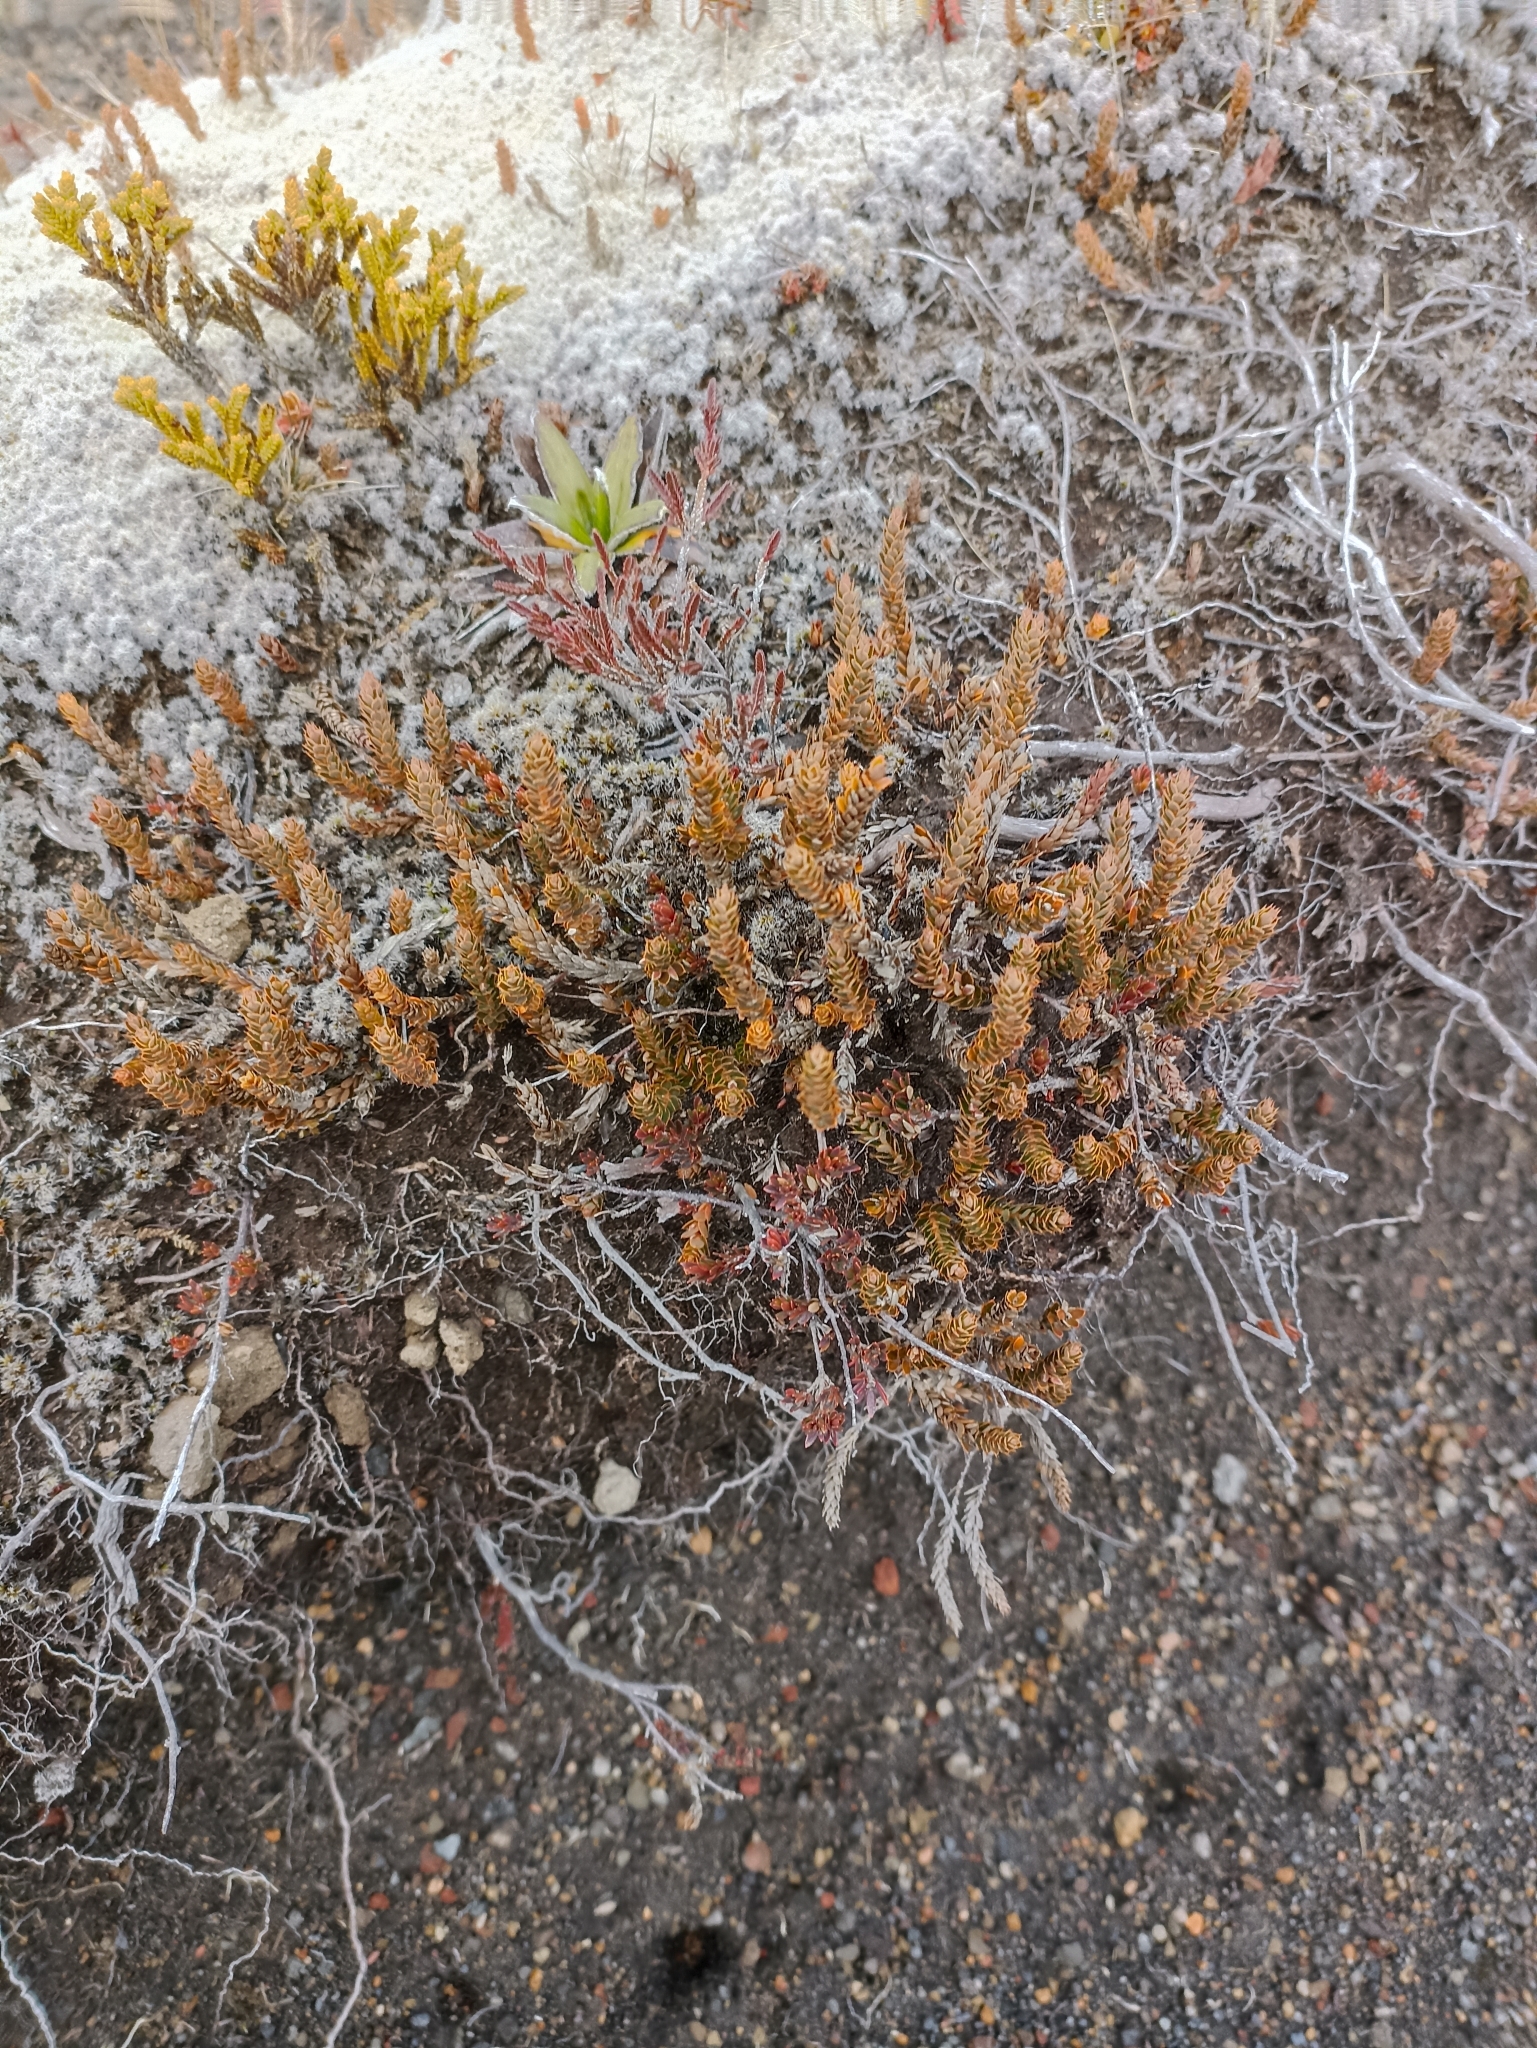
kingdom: Plantae
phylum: Tracheophyta
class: Magnoliopsida
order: Ericales
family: Ericaceae
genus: Styphelia
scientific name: Styphelia nesophila
